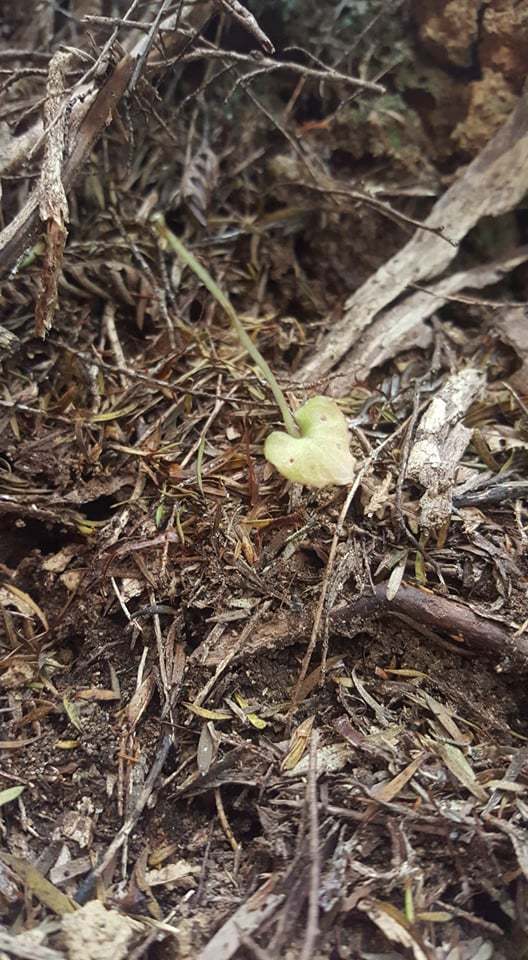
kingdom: Plantae
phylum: Tracheophyta
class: Liliopsida
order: Asparagales
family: Orchidaceae
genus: Corybas
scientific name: Corybas cheesemanii
